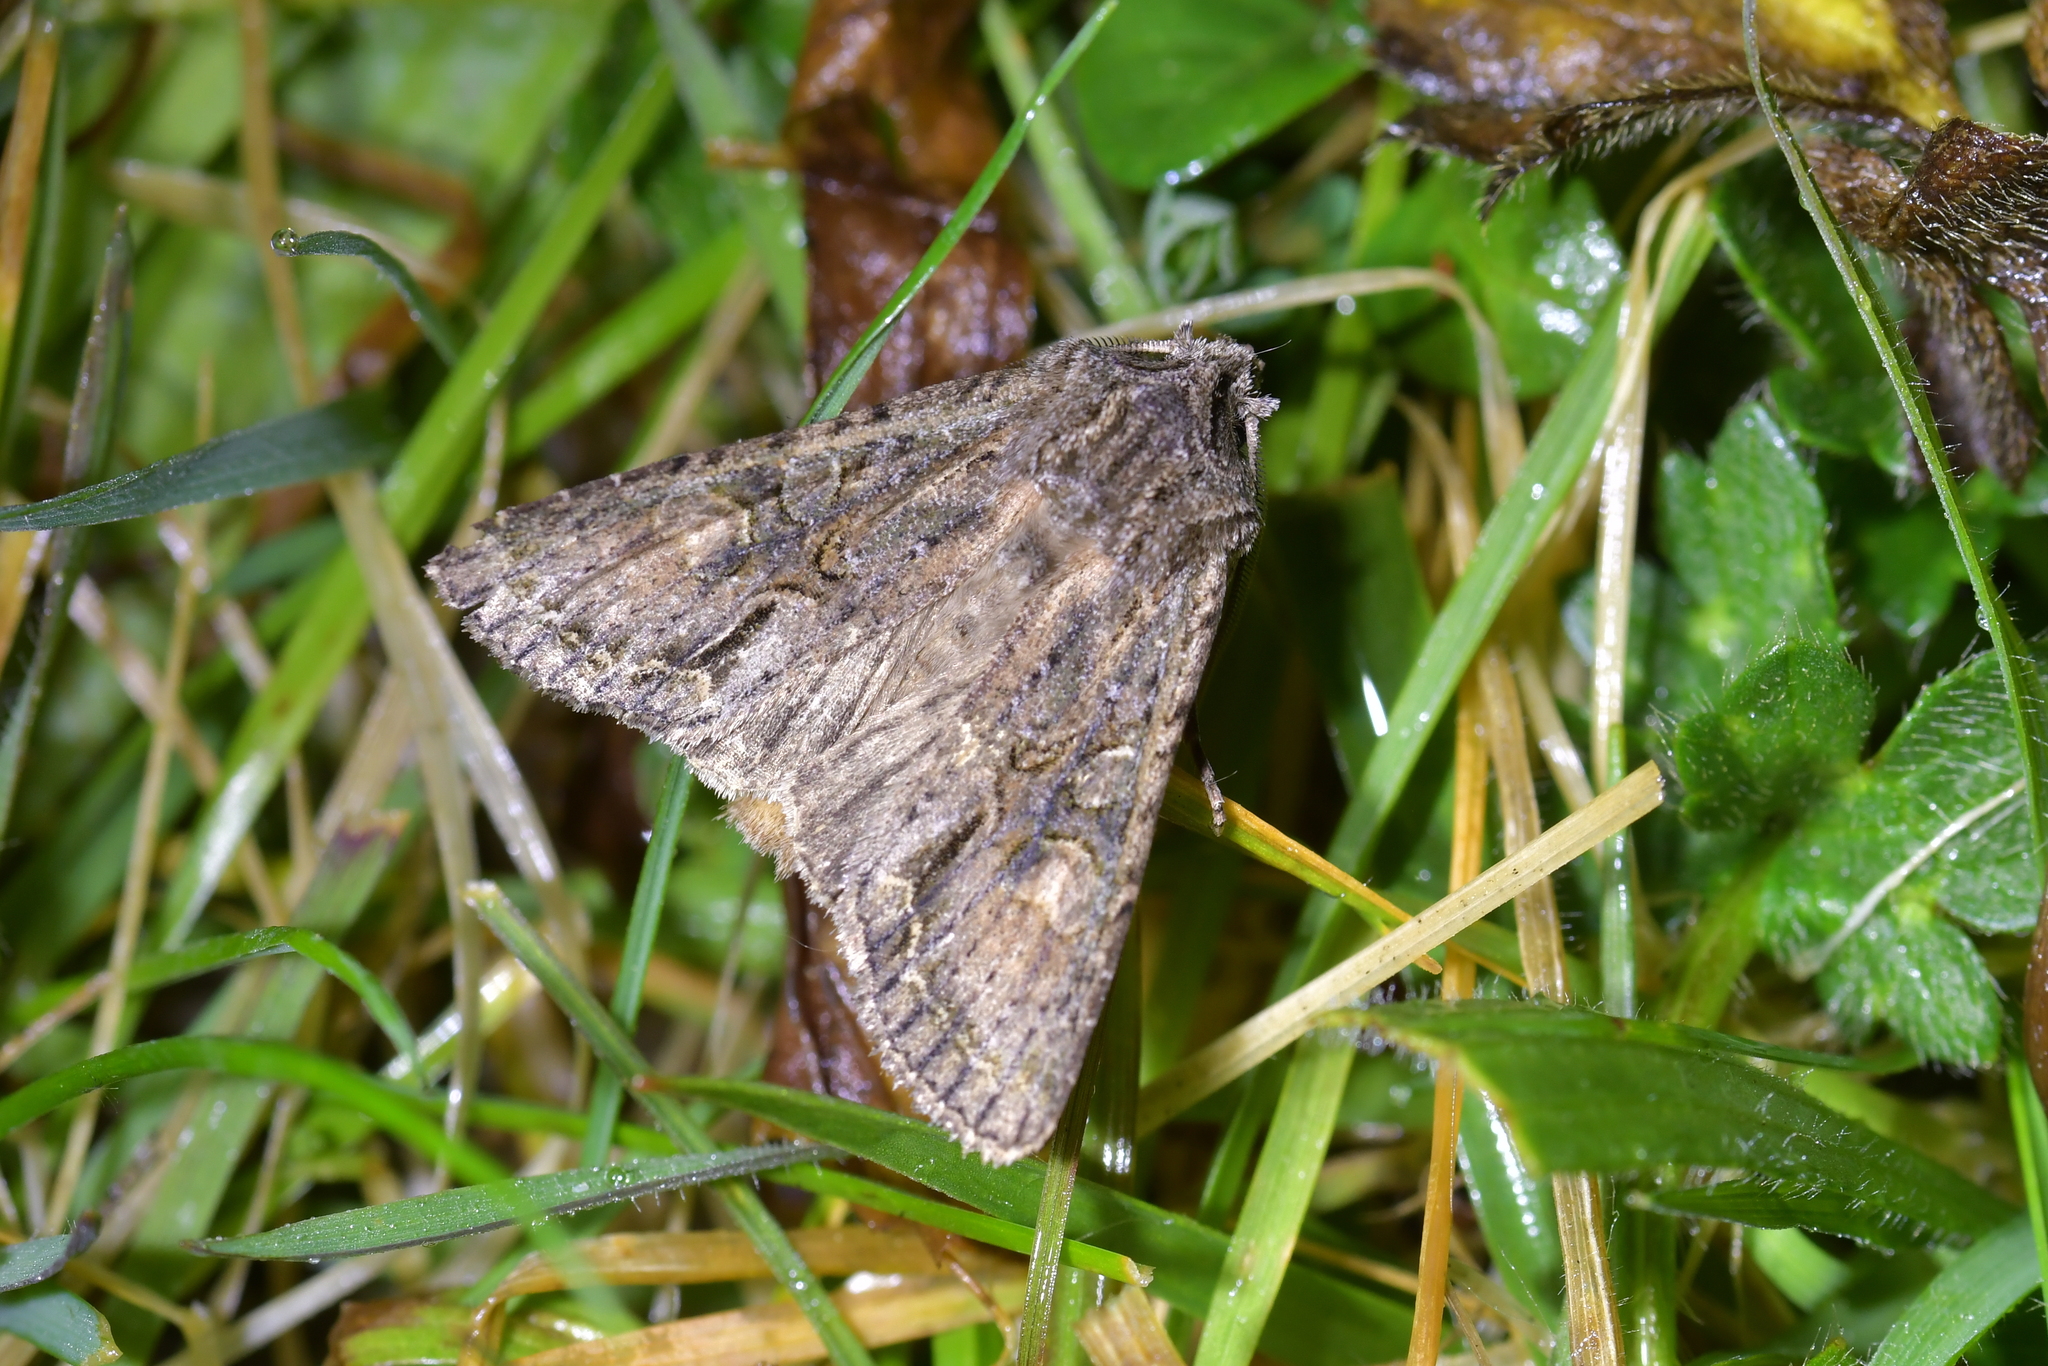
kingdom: Animalia
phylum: Arthropoda
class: Insecta
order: Lepidoptera
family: Noctuidae
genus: Ichneutica
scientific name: Ichneutica mutans
